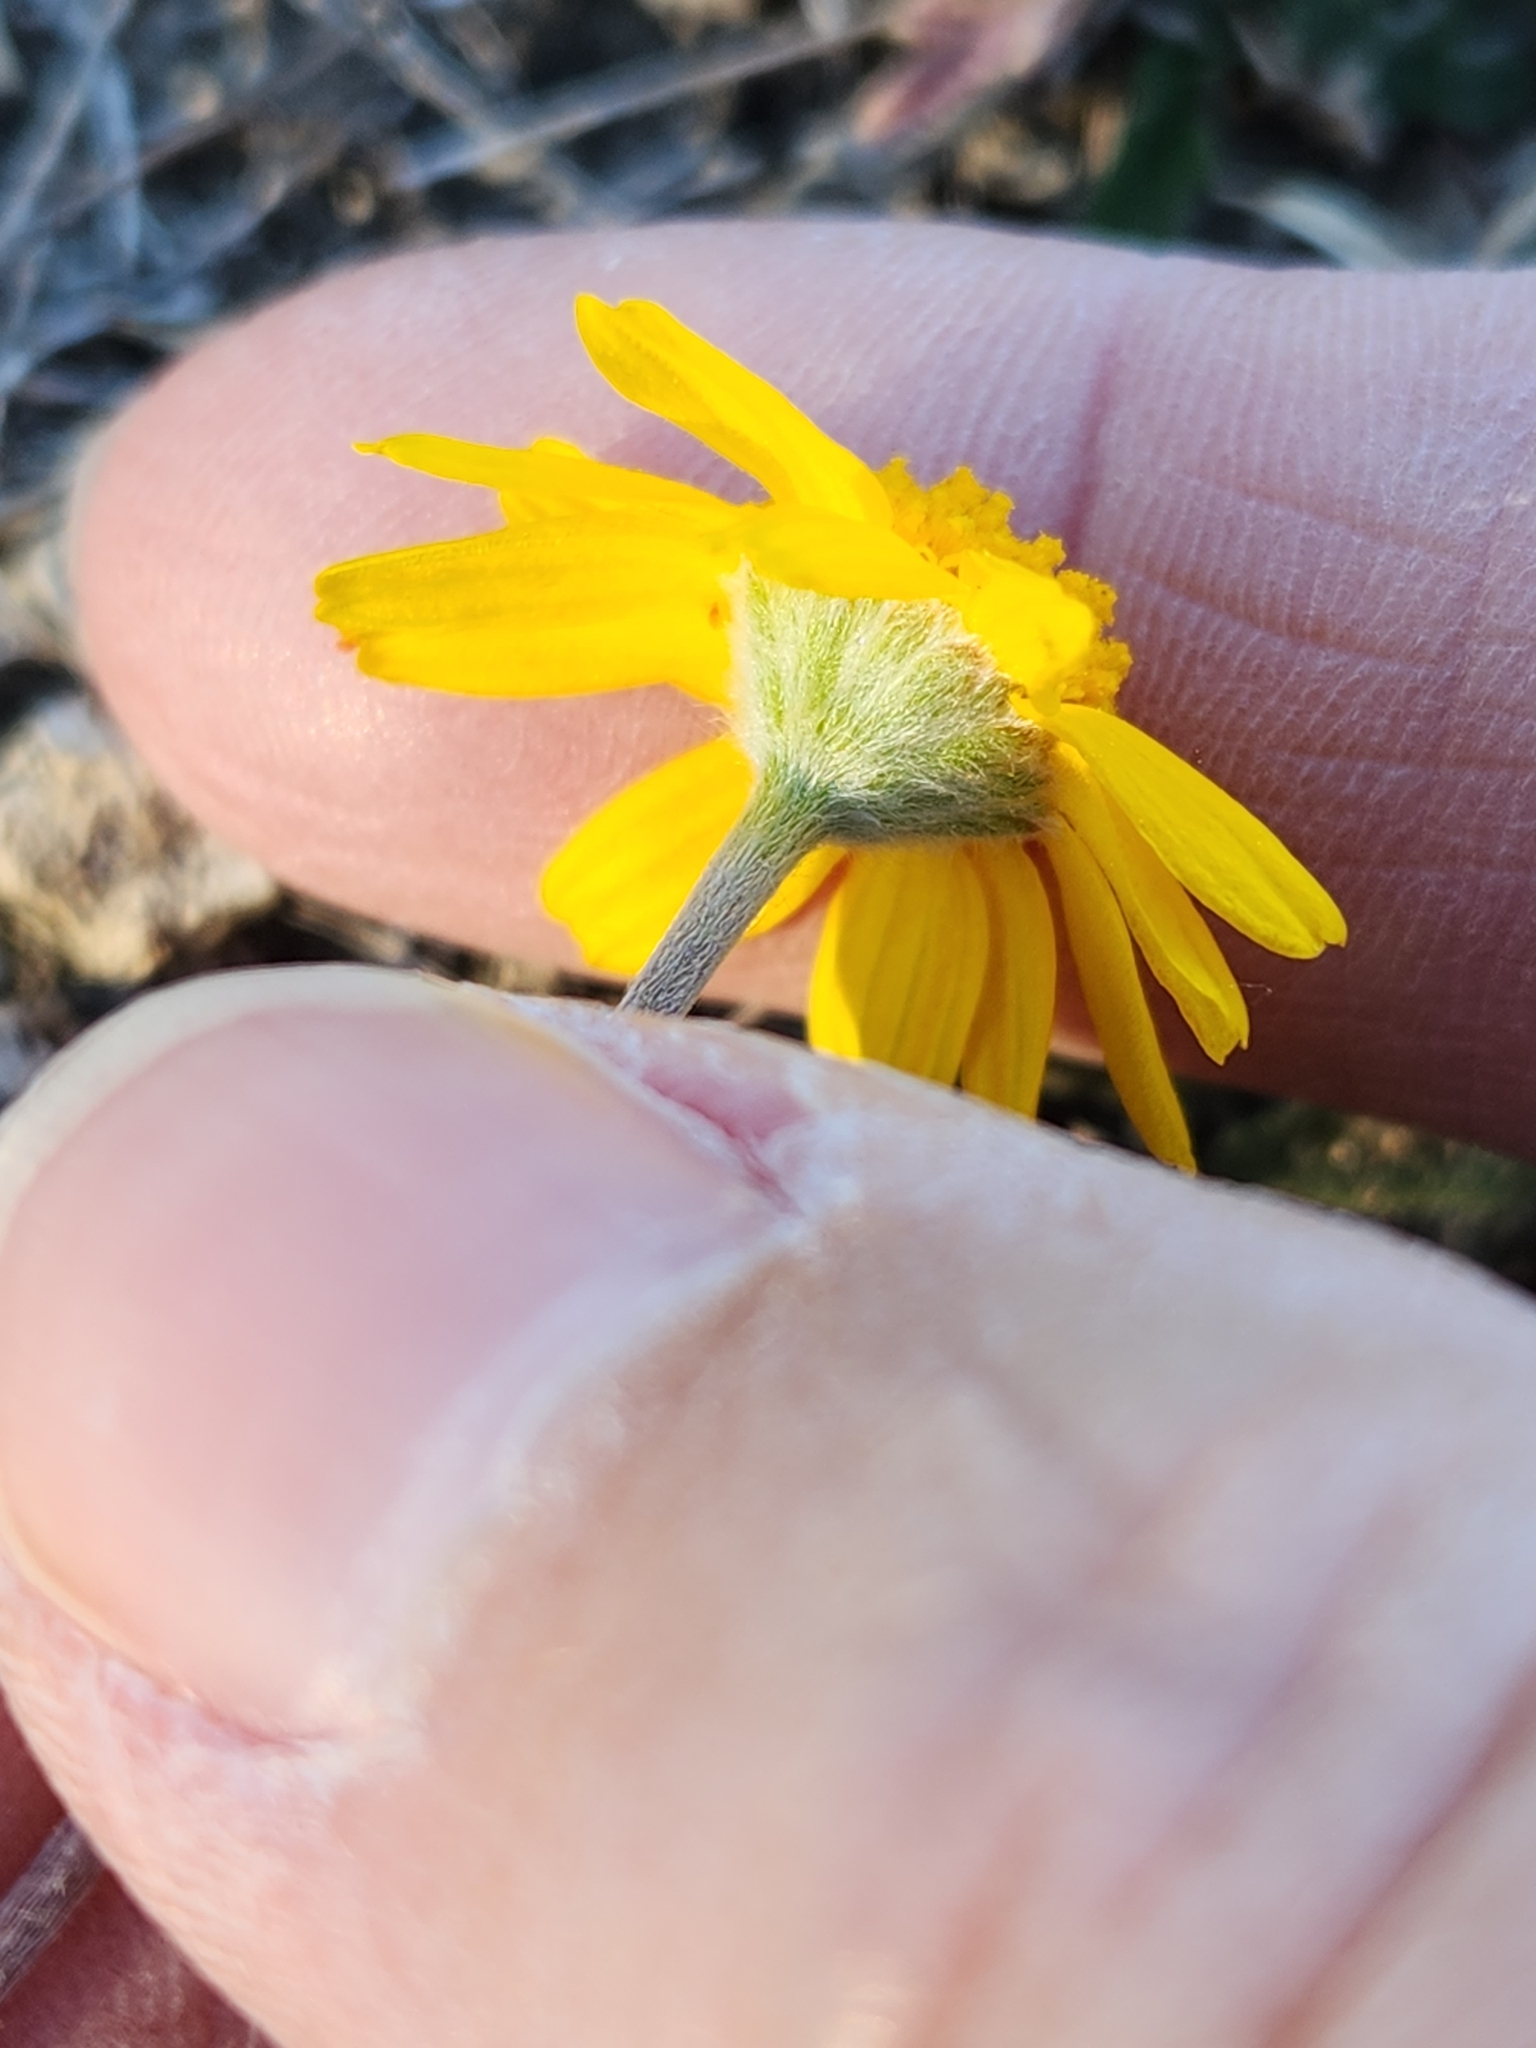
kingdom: Plantae
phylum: Tracheophyta
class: Magnoliopsida
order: Asterales
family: Asteraceae
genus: Tetraneuris
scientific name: Tetraneuris scaposa
